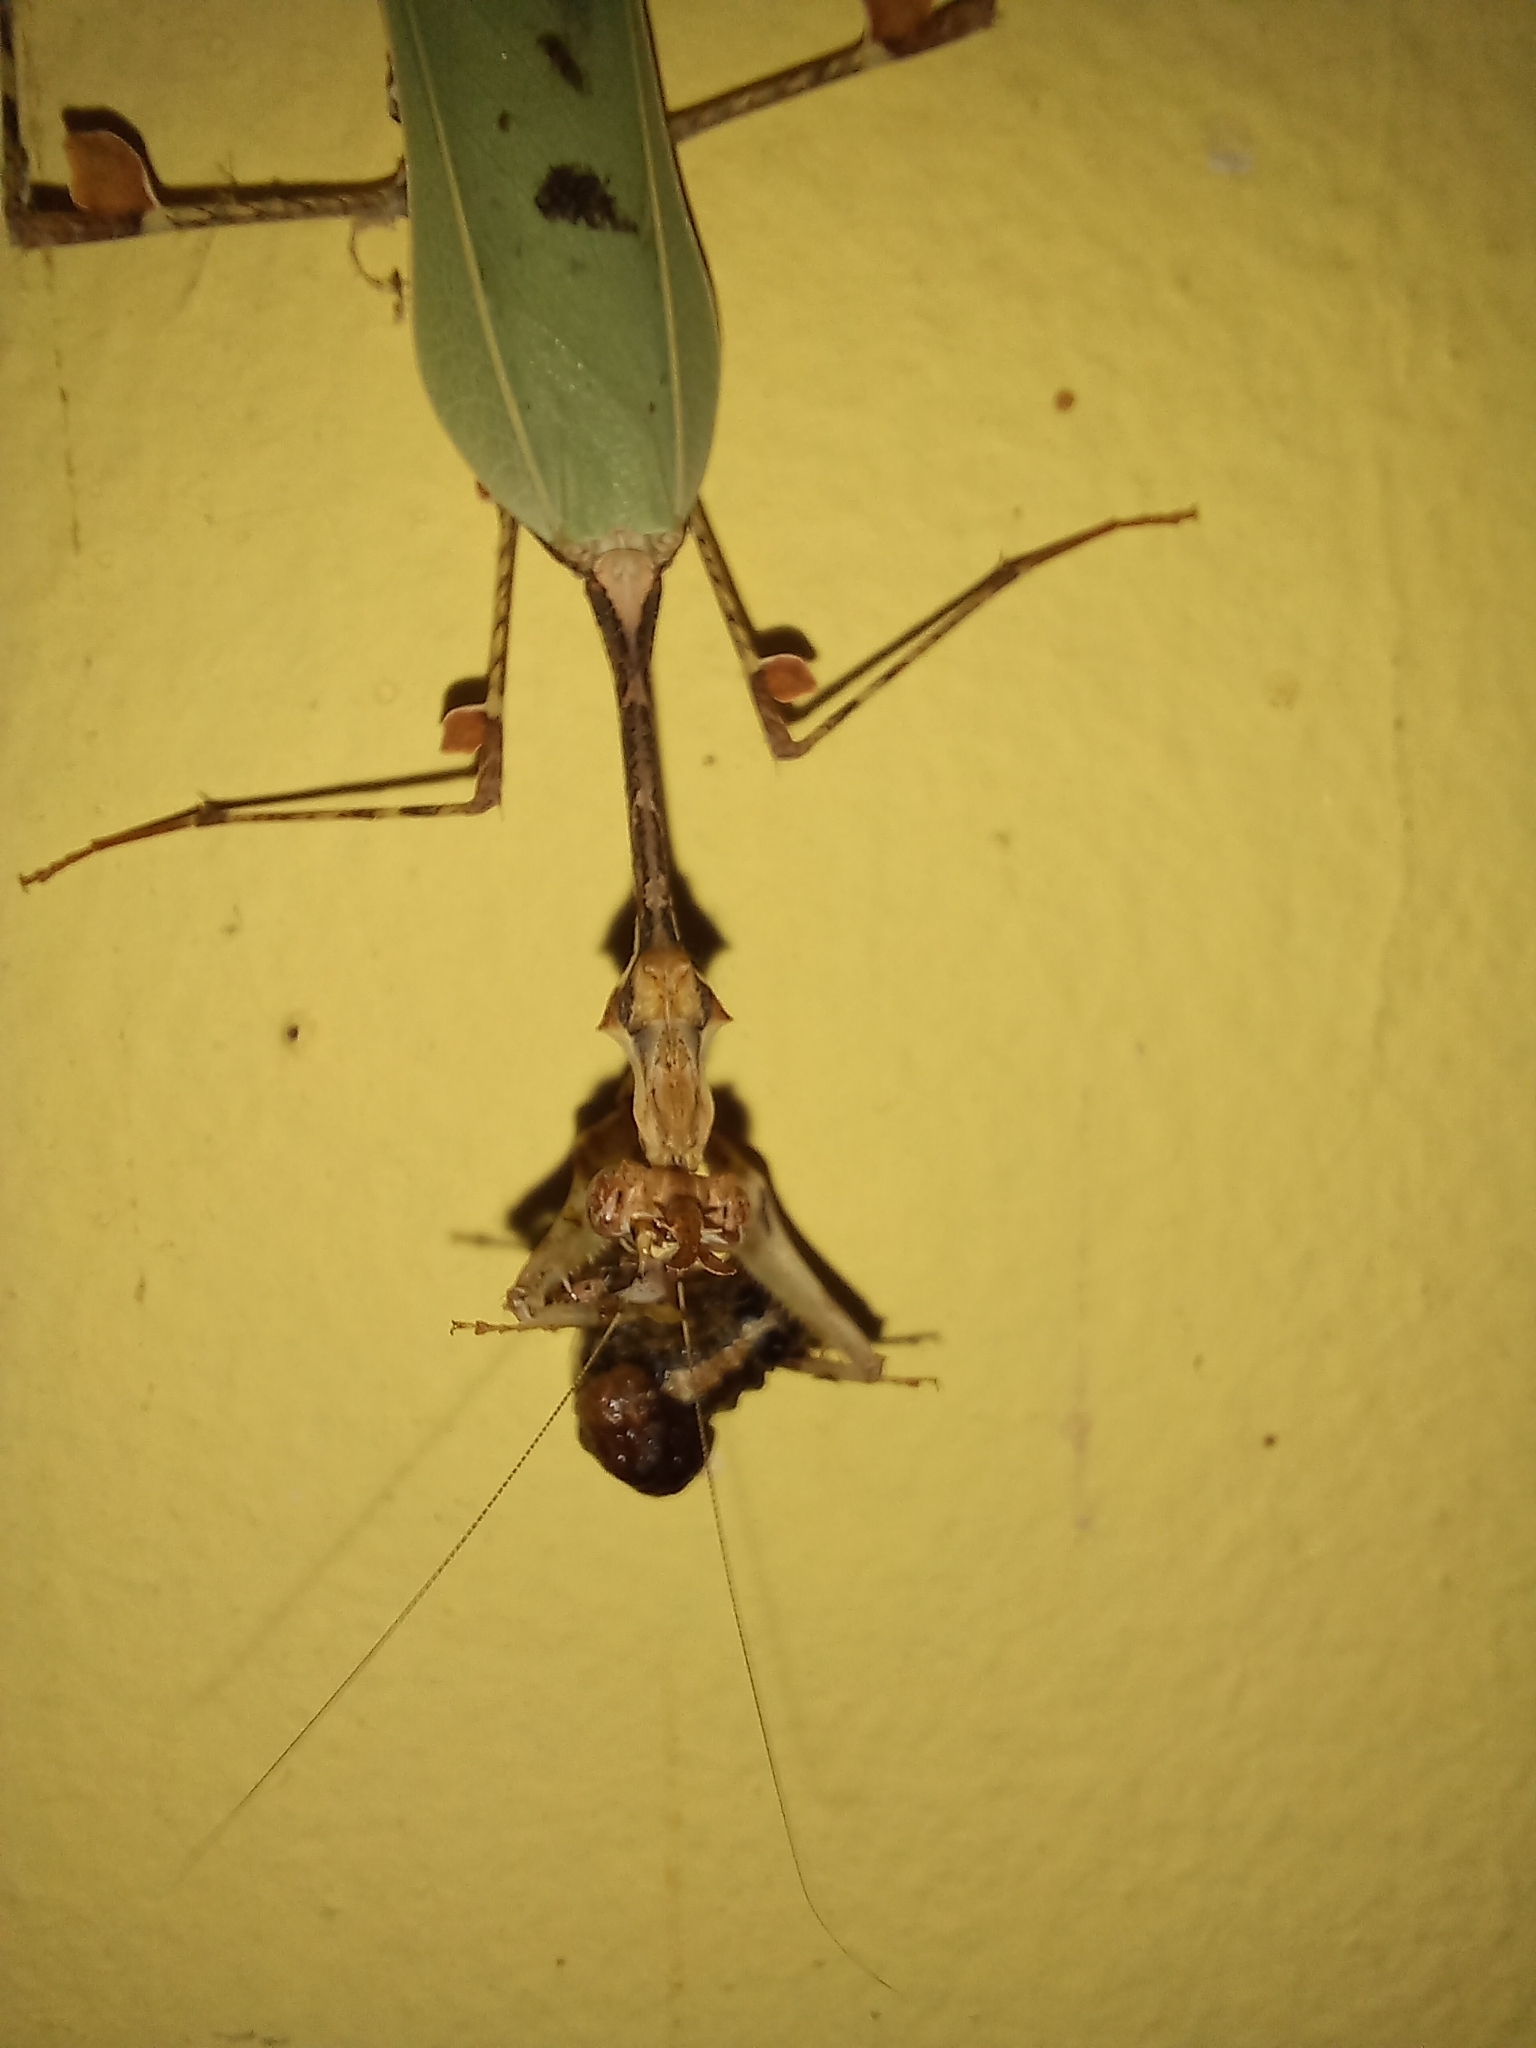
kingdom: Animalia
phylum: Arthropoda
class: Insecta
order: Mantodea
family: Hymenopodidae
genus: Sibylla
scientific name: Sibylla pretiosa
